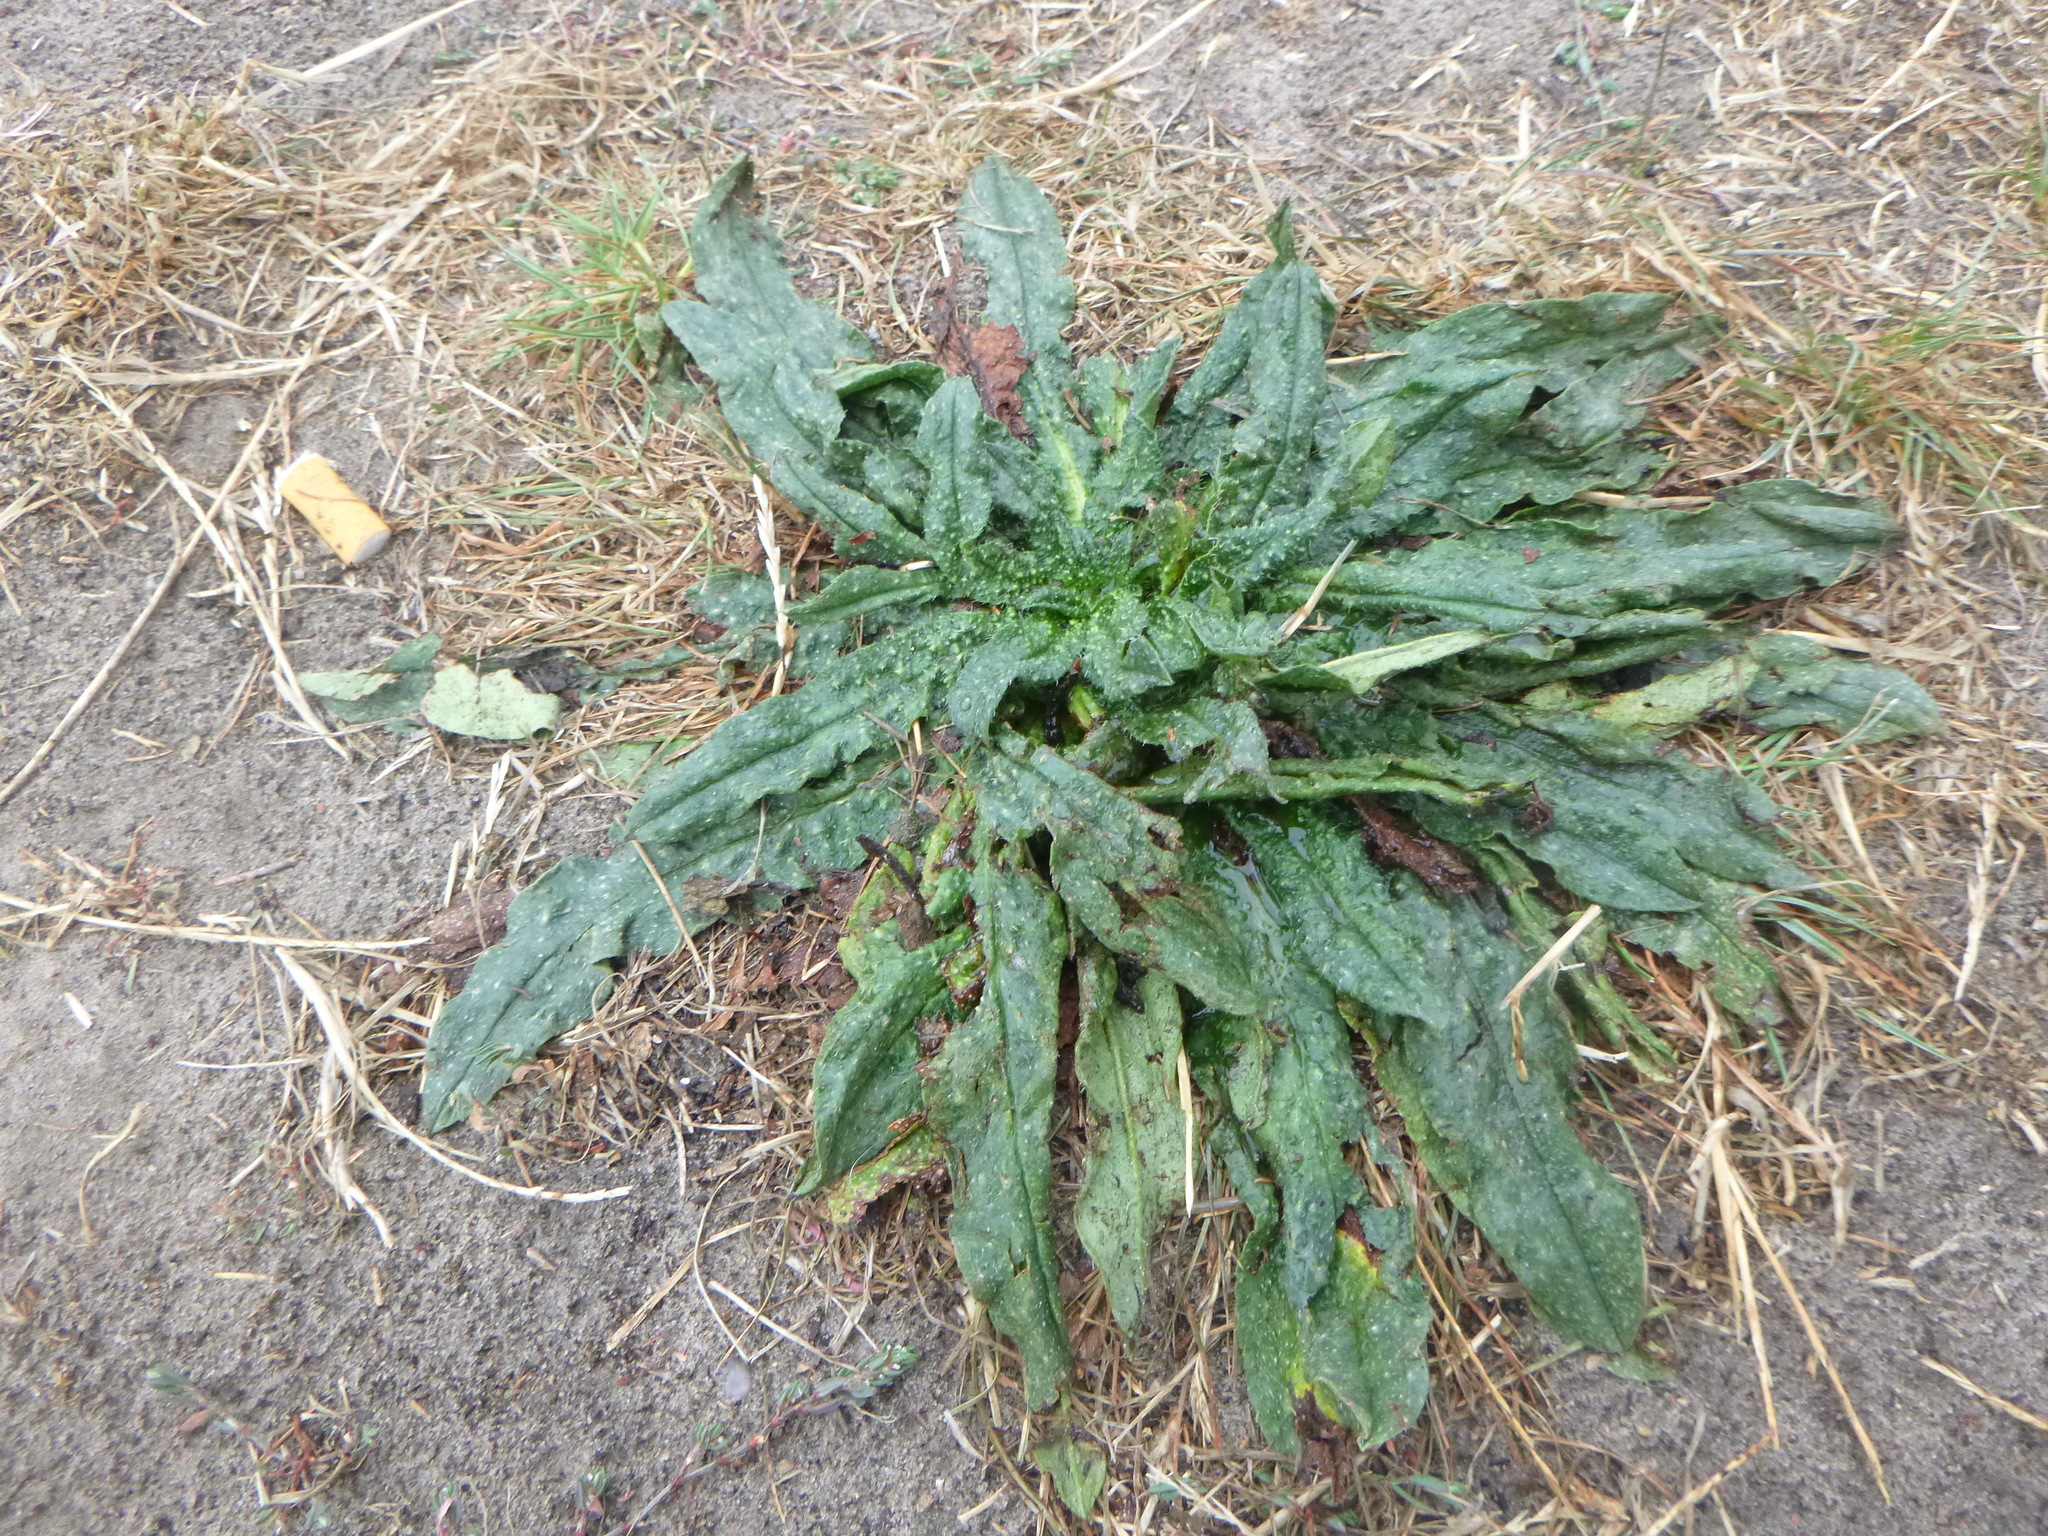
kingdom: Plantae
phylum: Tracheophyta
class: Magnoliopsida
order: Boraginales
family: Boraginaceae
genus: Echium
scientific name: Echium vulgare
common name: Common viper's bugloss
